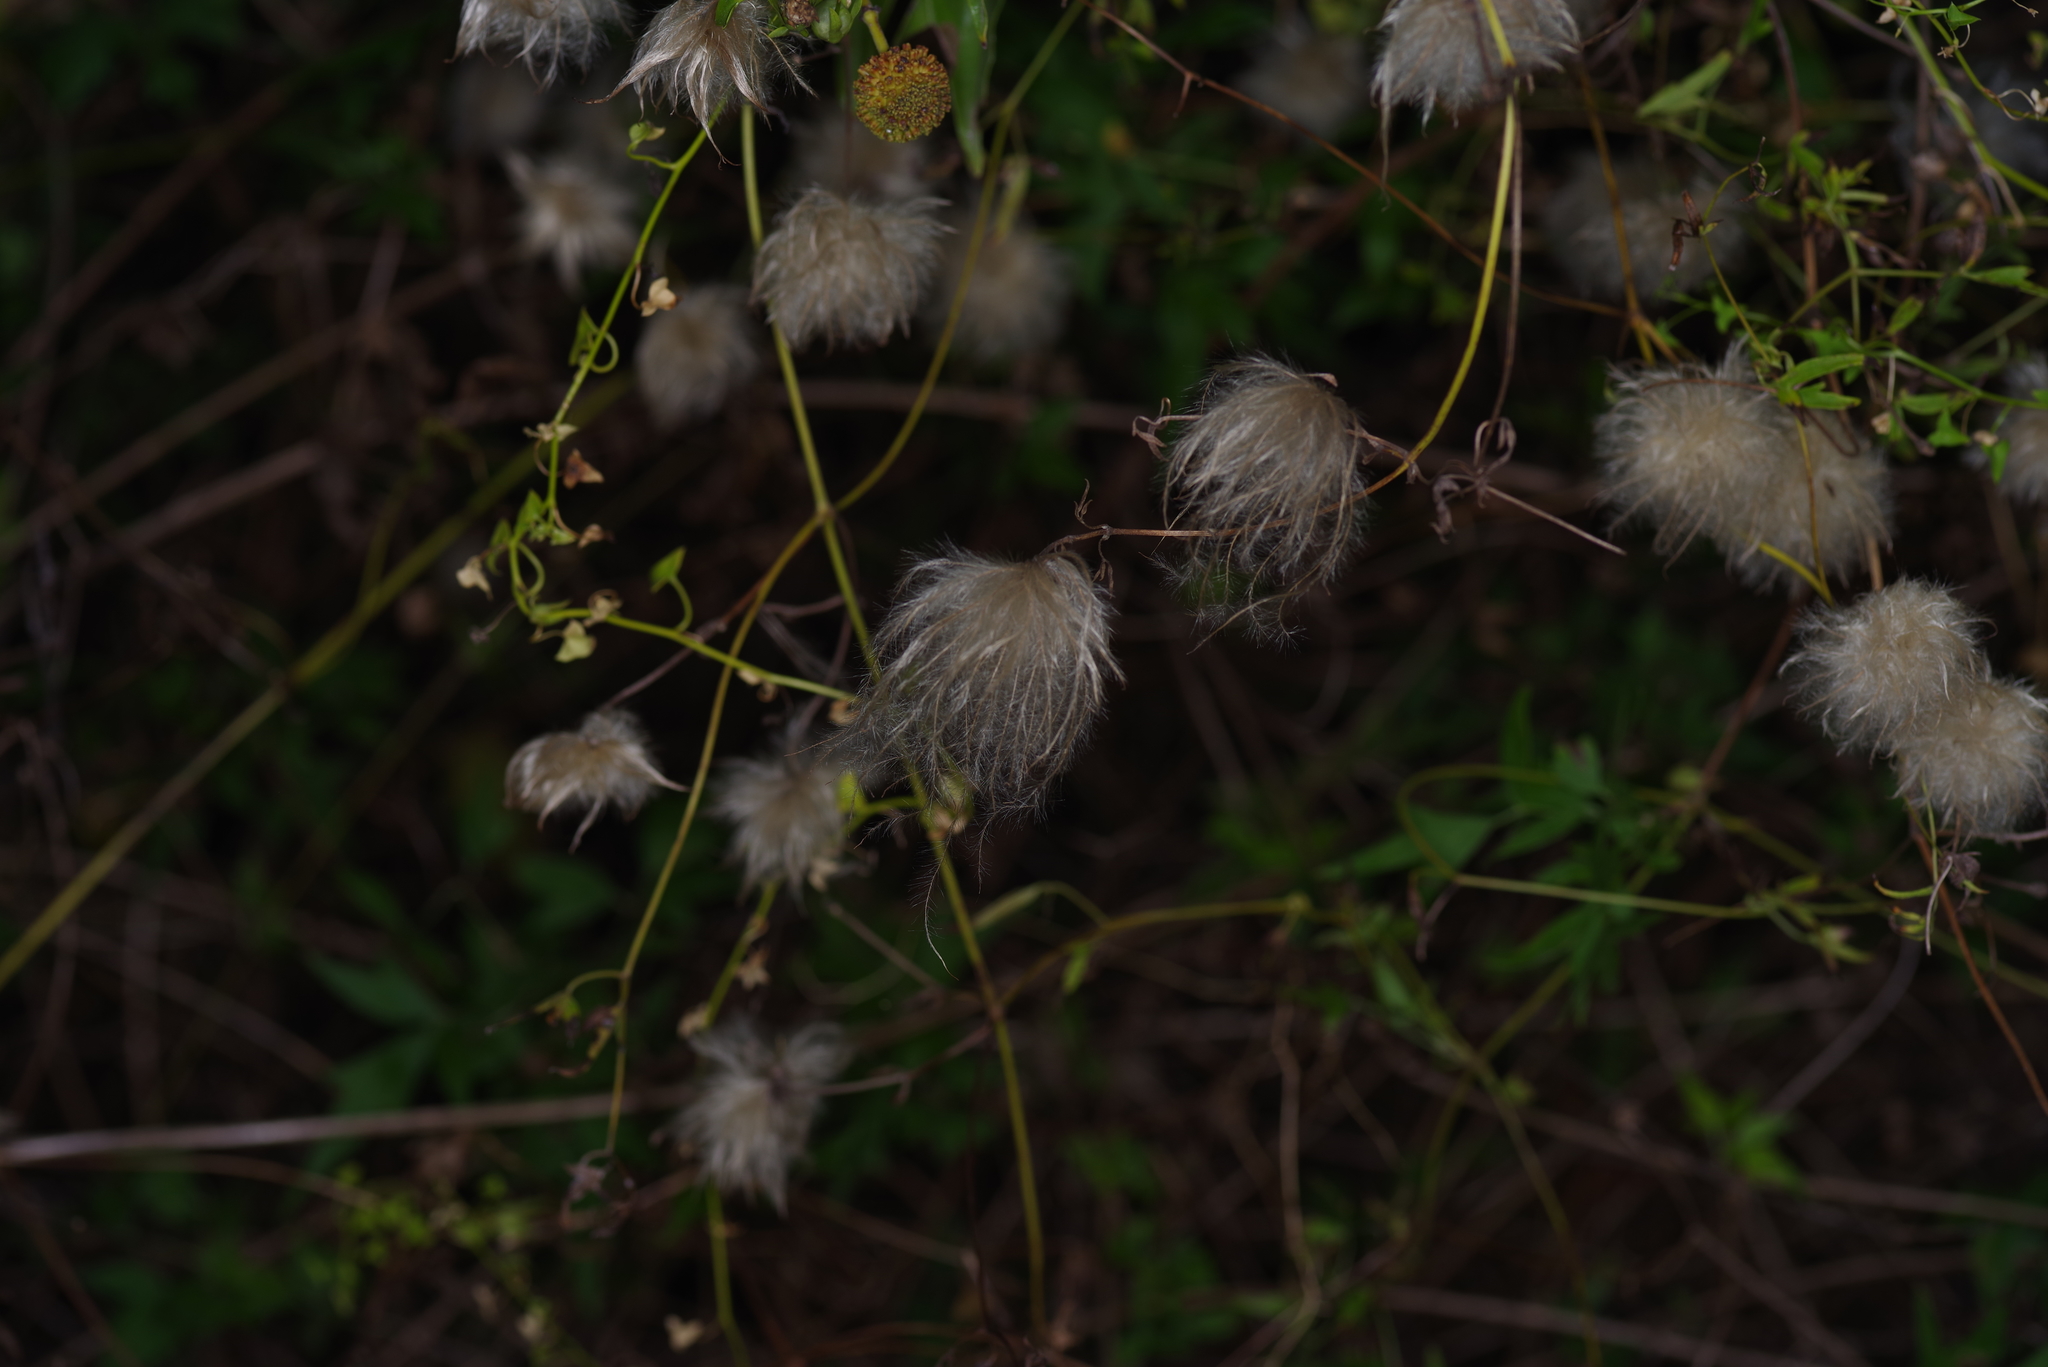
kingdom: Plantae
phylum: Tracheophyta
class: Magnoliopsida
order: Ranunculales
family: Ranunculaceae
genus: Clematis
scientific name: Clematis drummondii
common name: Texas virgin's bower
